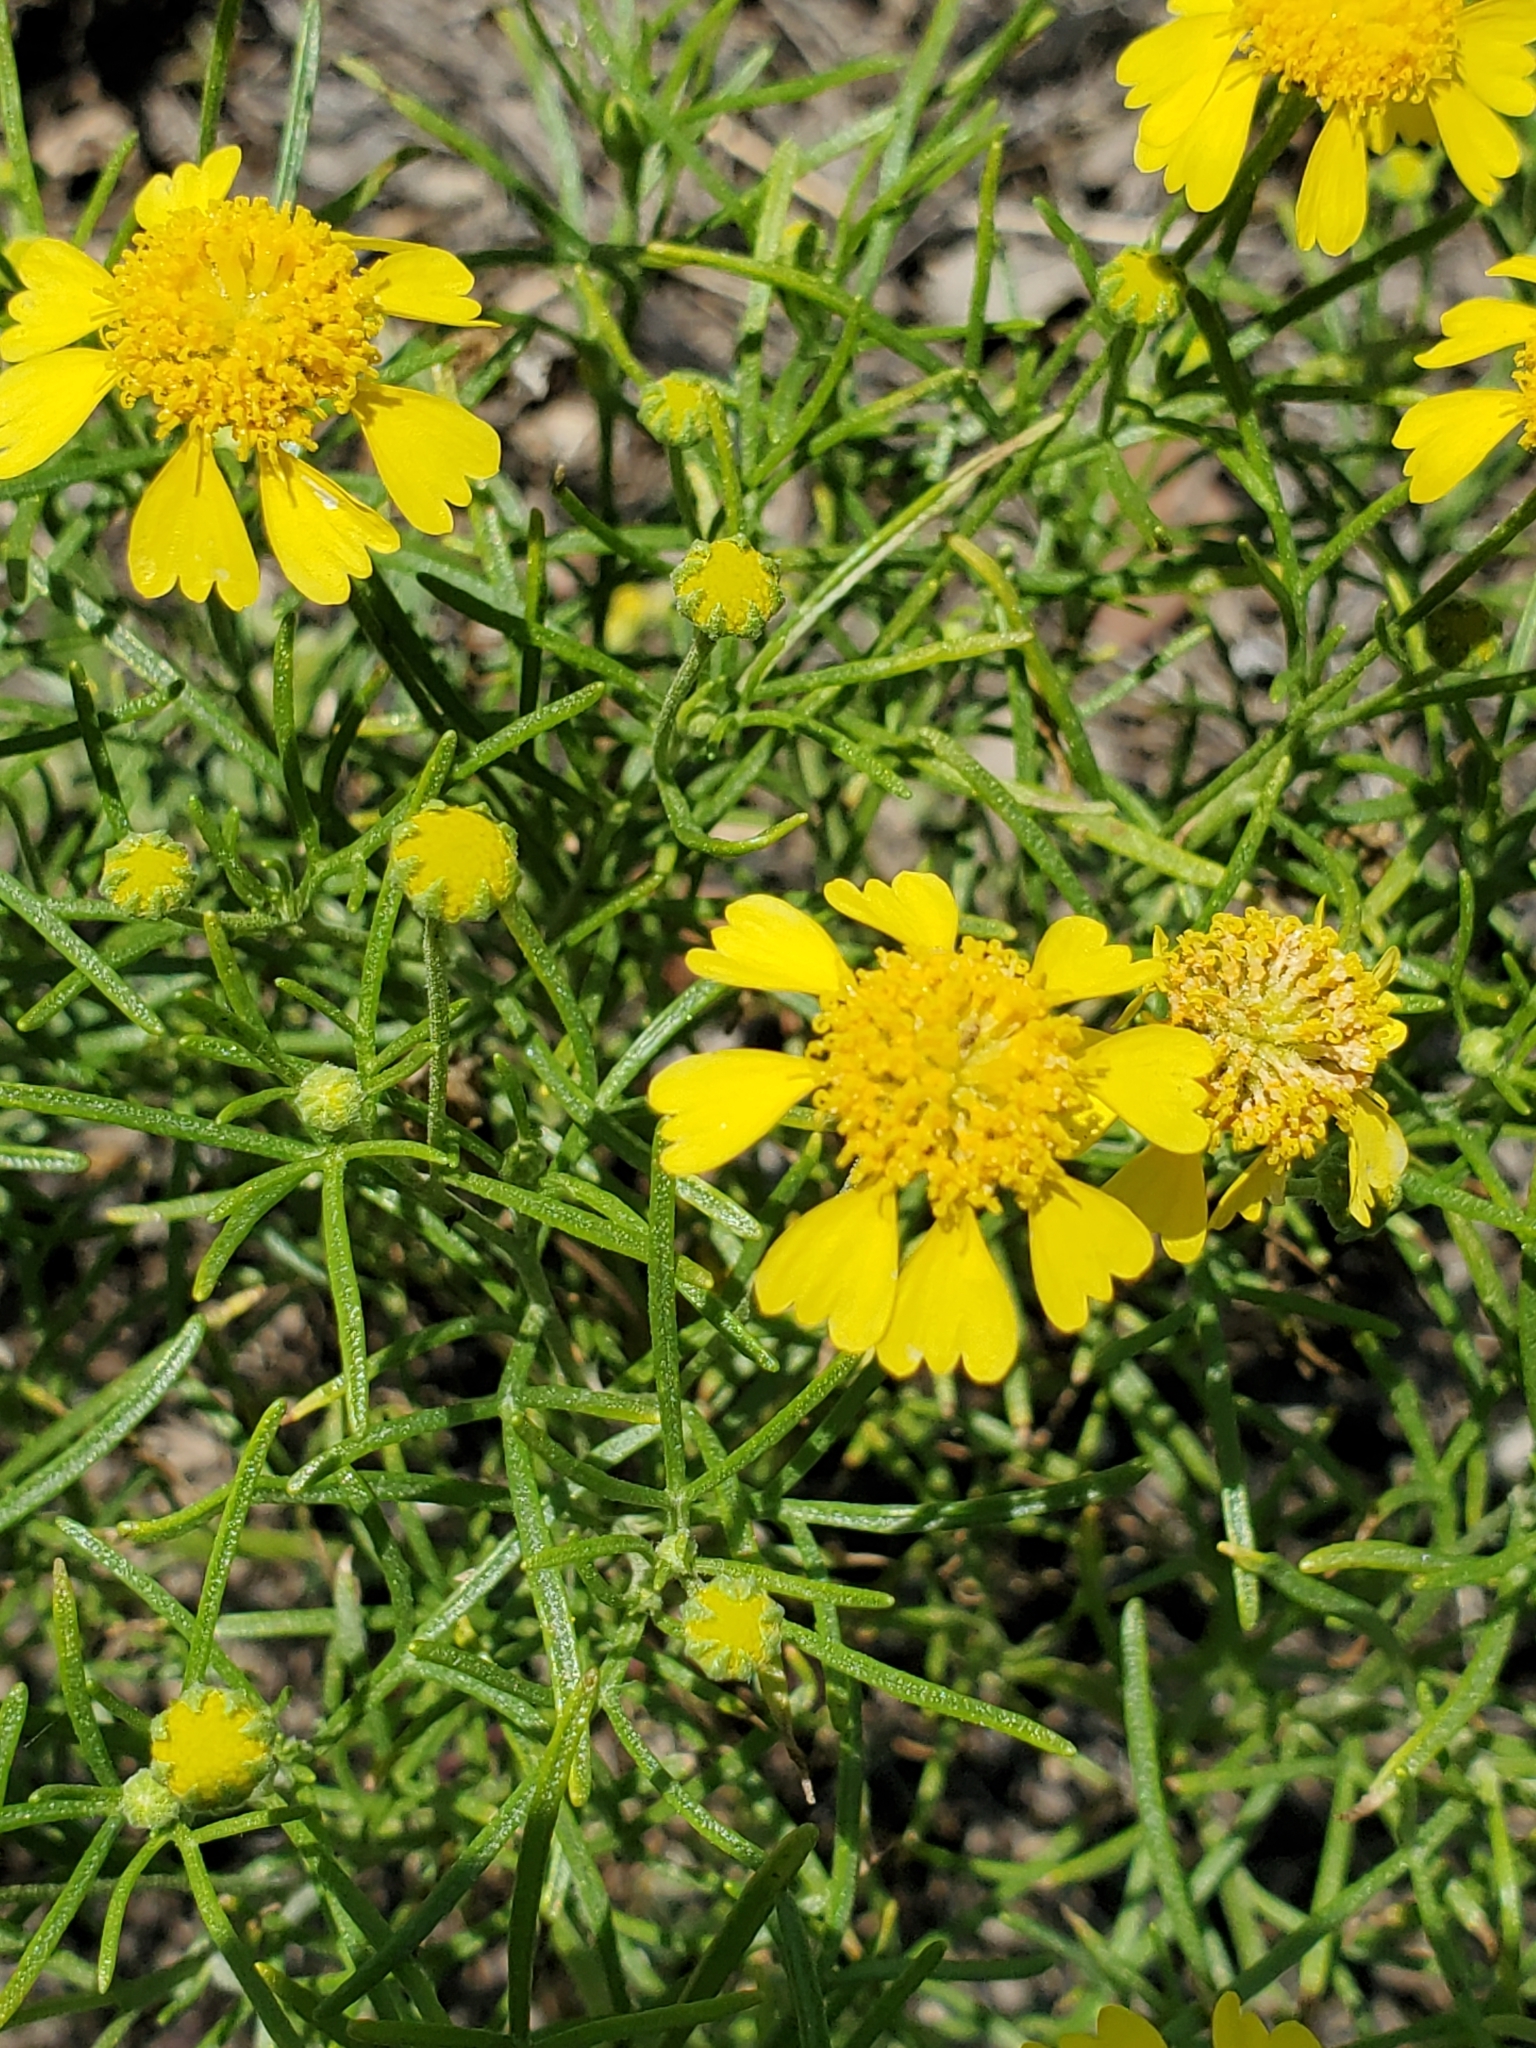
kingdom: Plantae
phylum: Tracheophyta
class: Magnoliopsida
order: Asterales
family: Asteraceae
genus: Hymenoxys
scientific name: Hymenoxys odorata
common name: Bitter rubberweed
